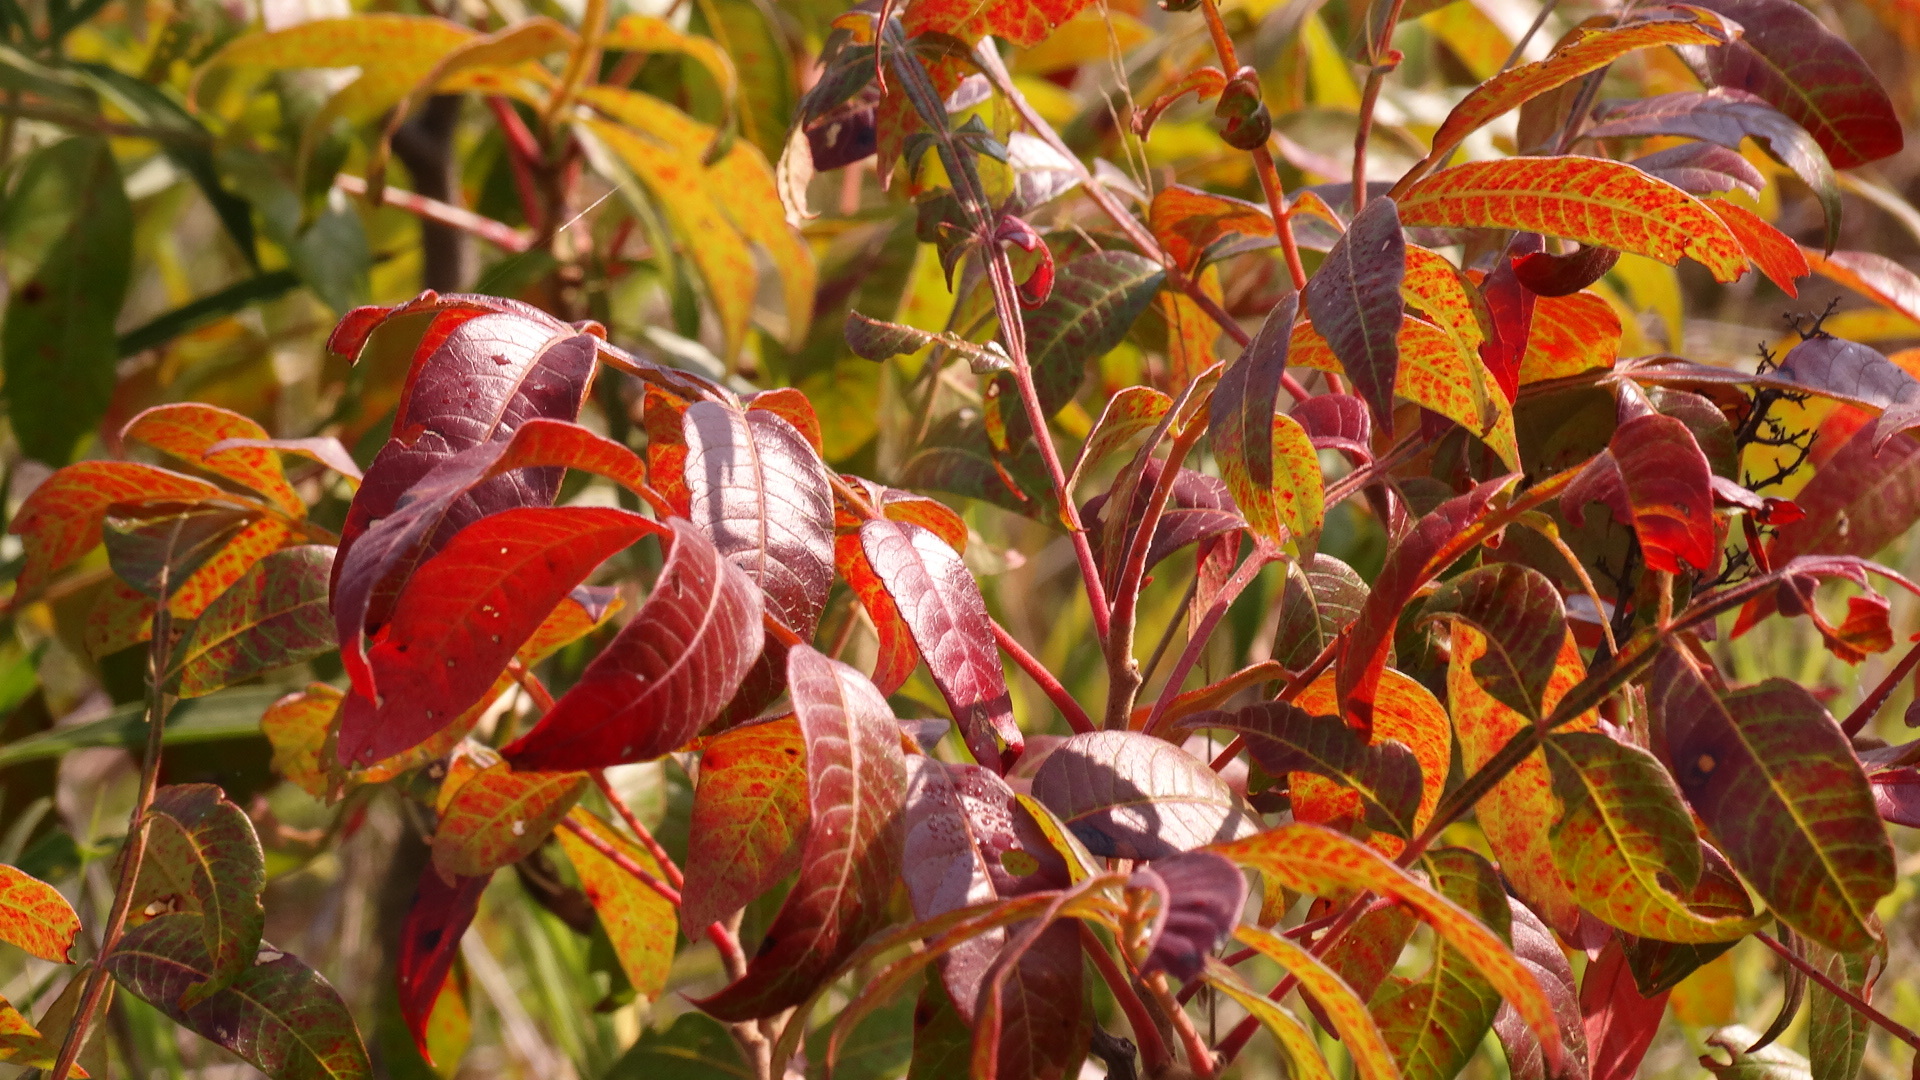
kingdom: Plantae
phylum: Tracheophyta
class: Magnoliopsida
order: Sapindales
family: Anacardiaceae
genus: Rhus
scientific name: Rhus copallina
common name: Shining sumac
